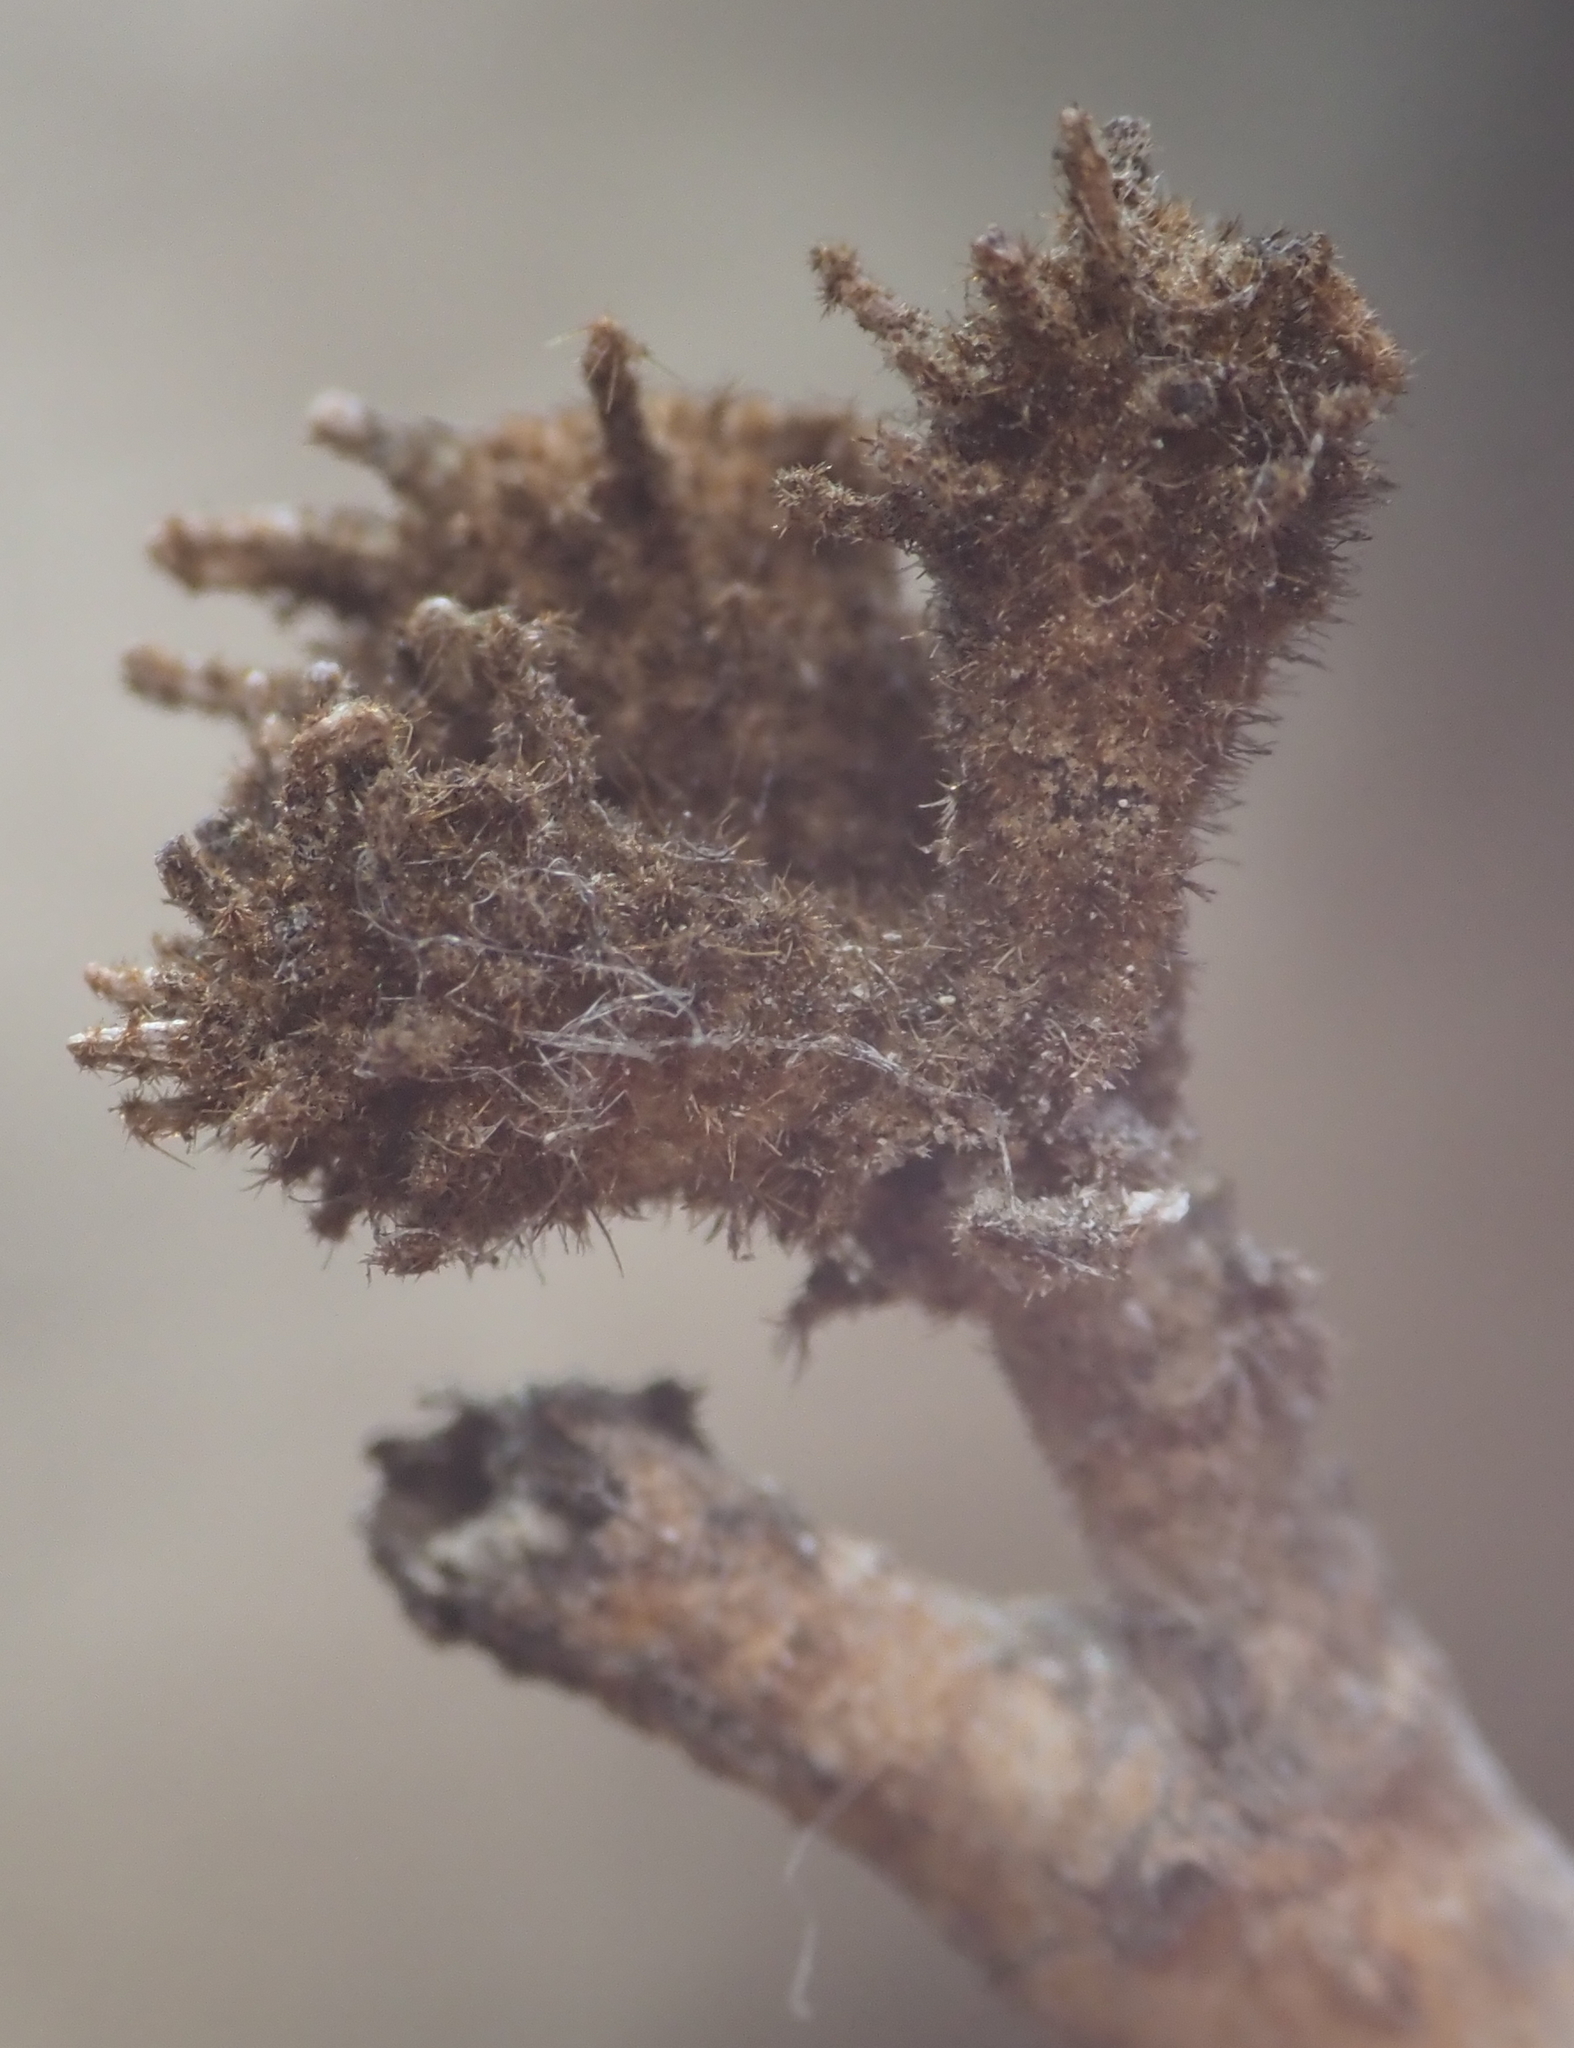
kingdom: Animalia
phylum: Arthropoda
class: Insecta
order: Hemiptera
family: Aphididae
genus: Hamamelistes
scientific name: Hamamelistes spinosus
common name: Witch hazel gall aphid
